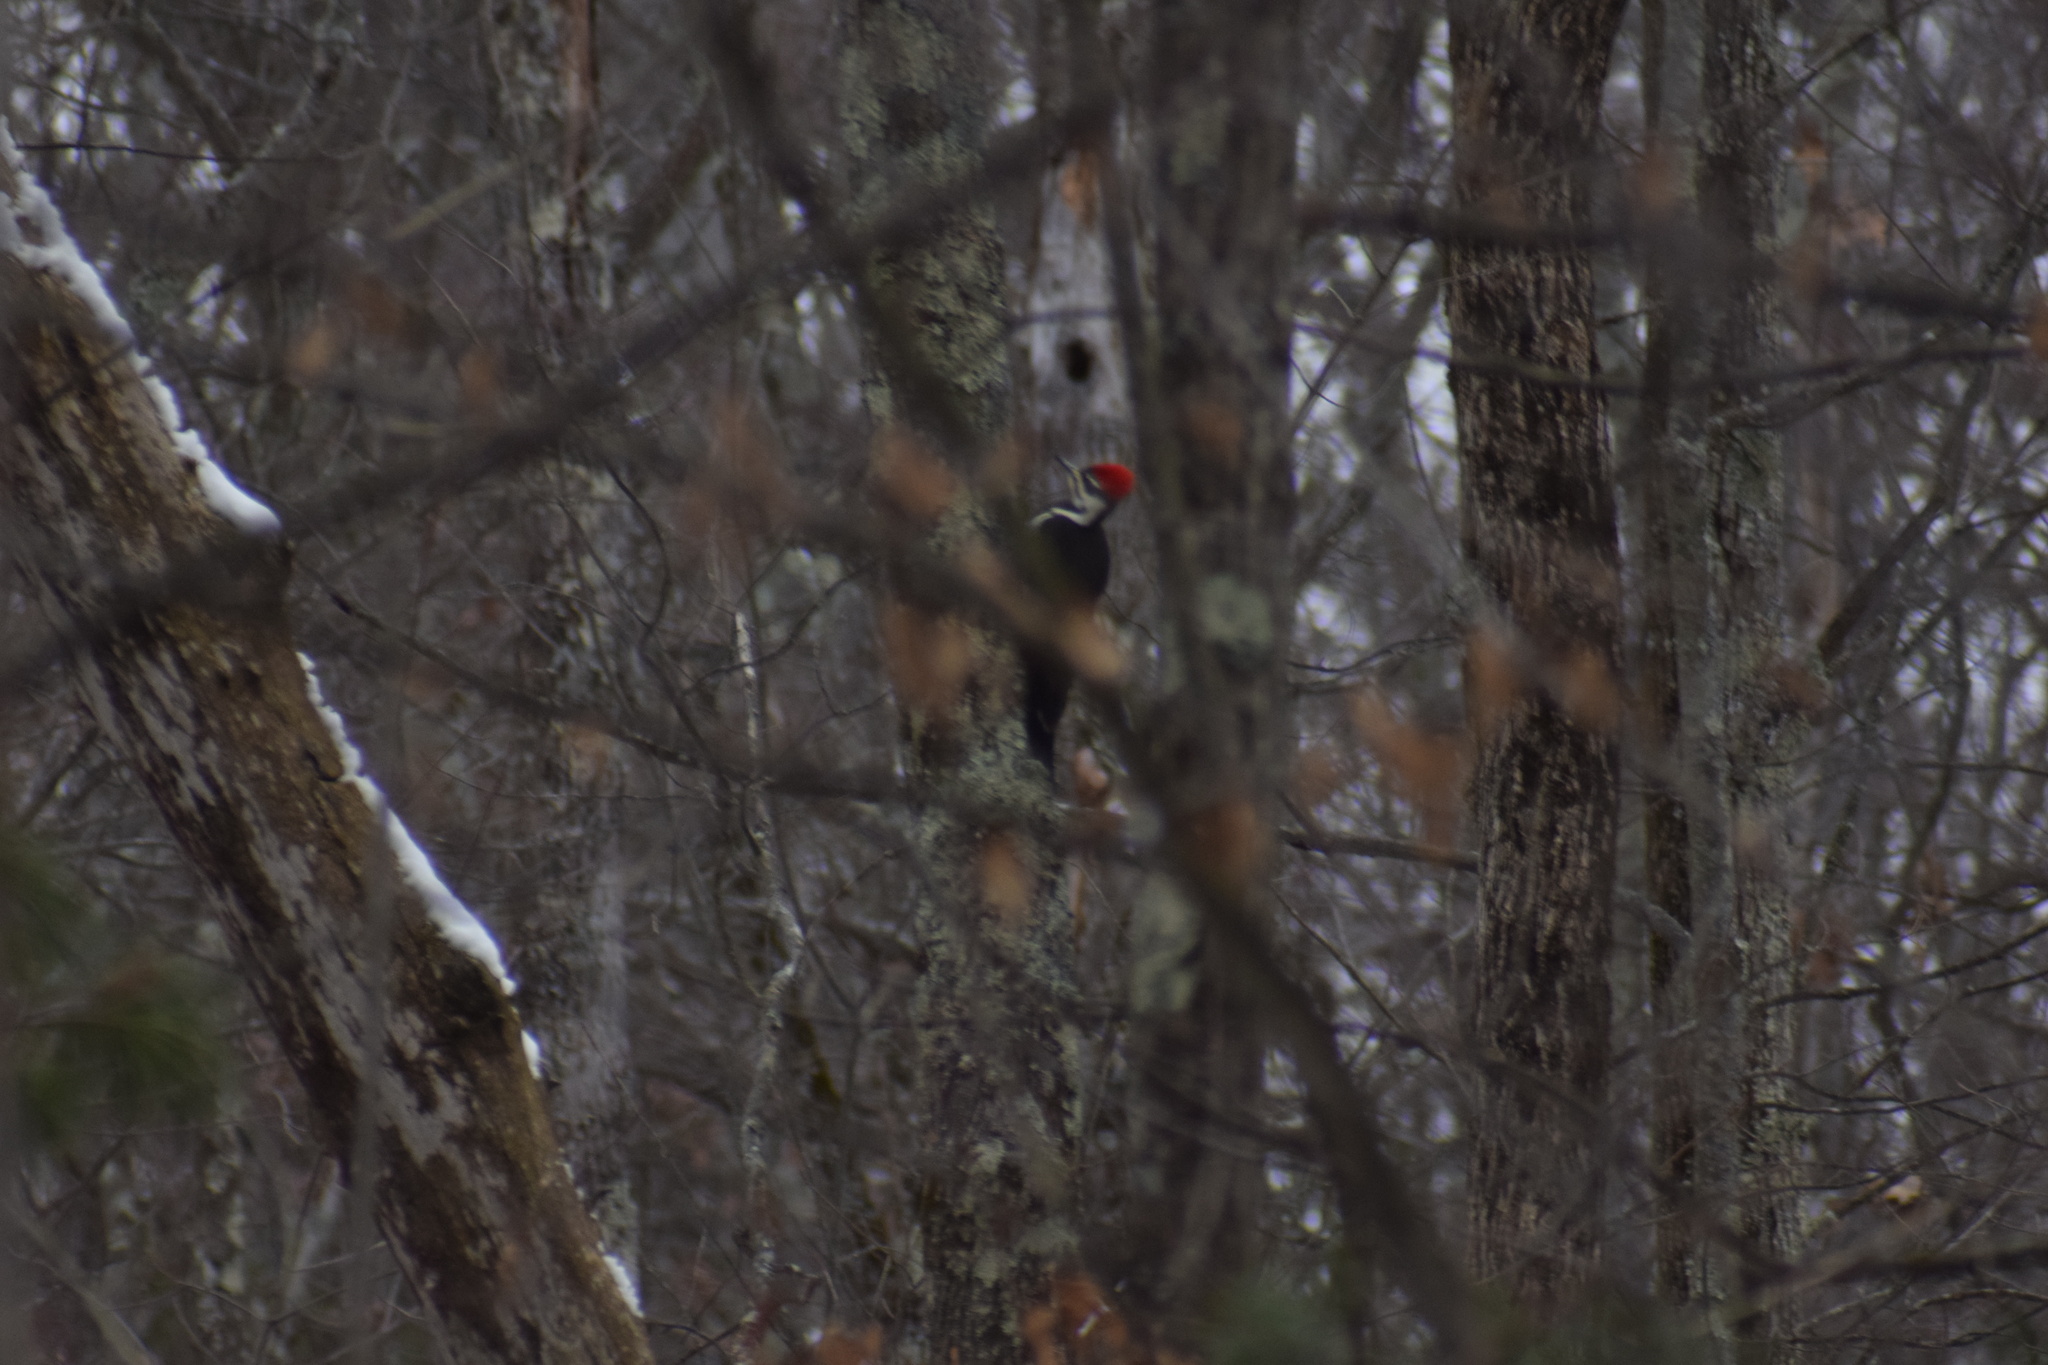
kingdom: Animalia
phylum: Chordata
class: Aves
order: Piciformes
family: Picidae
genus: Dryocopus
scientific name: Dryocopus pileatus
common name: Pileated woodpecker
